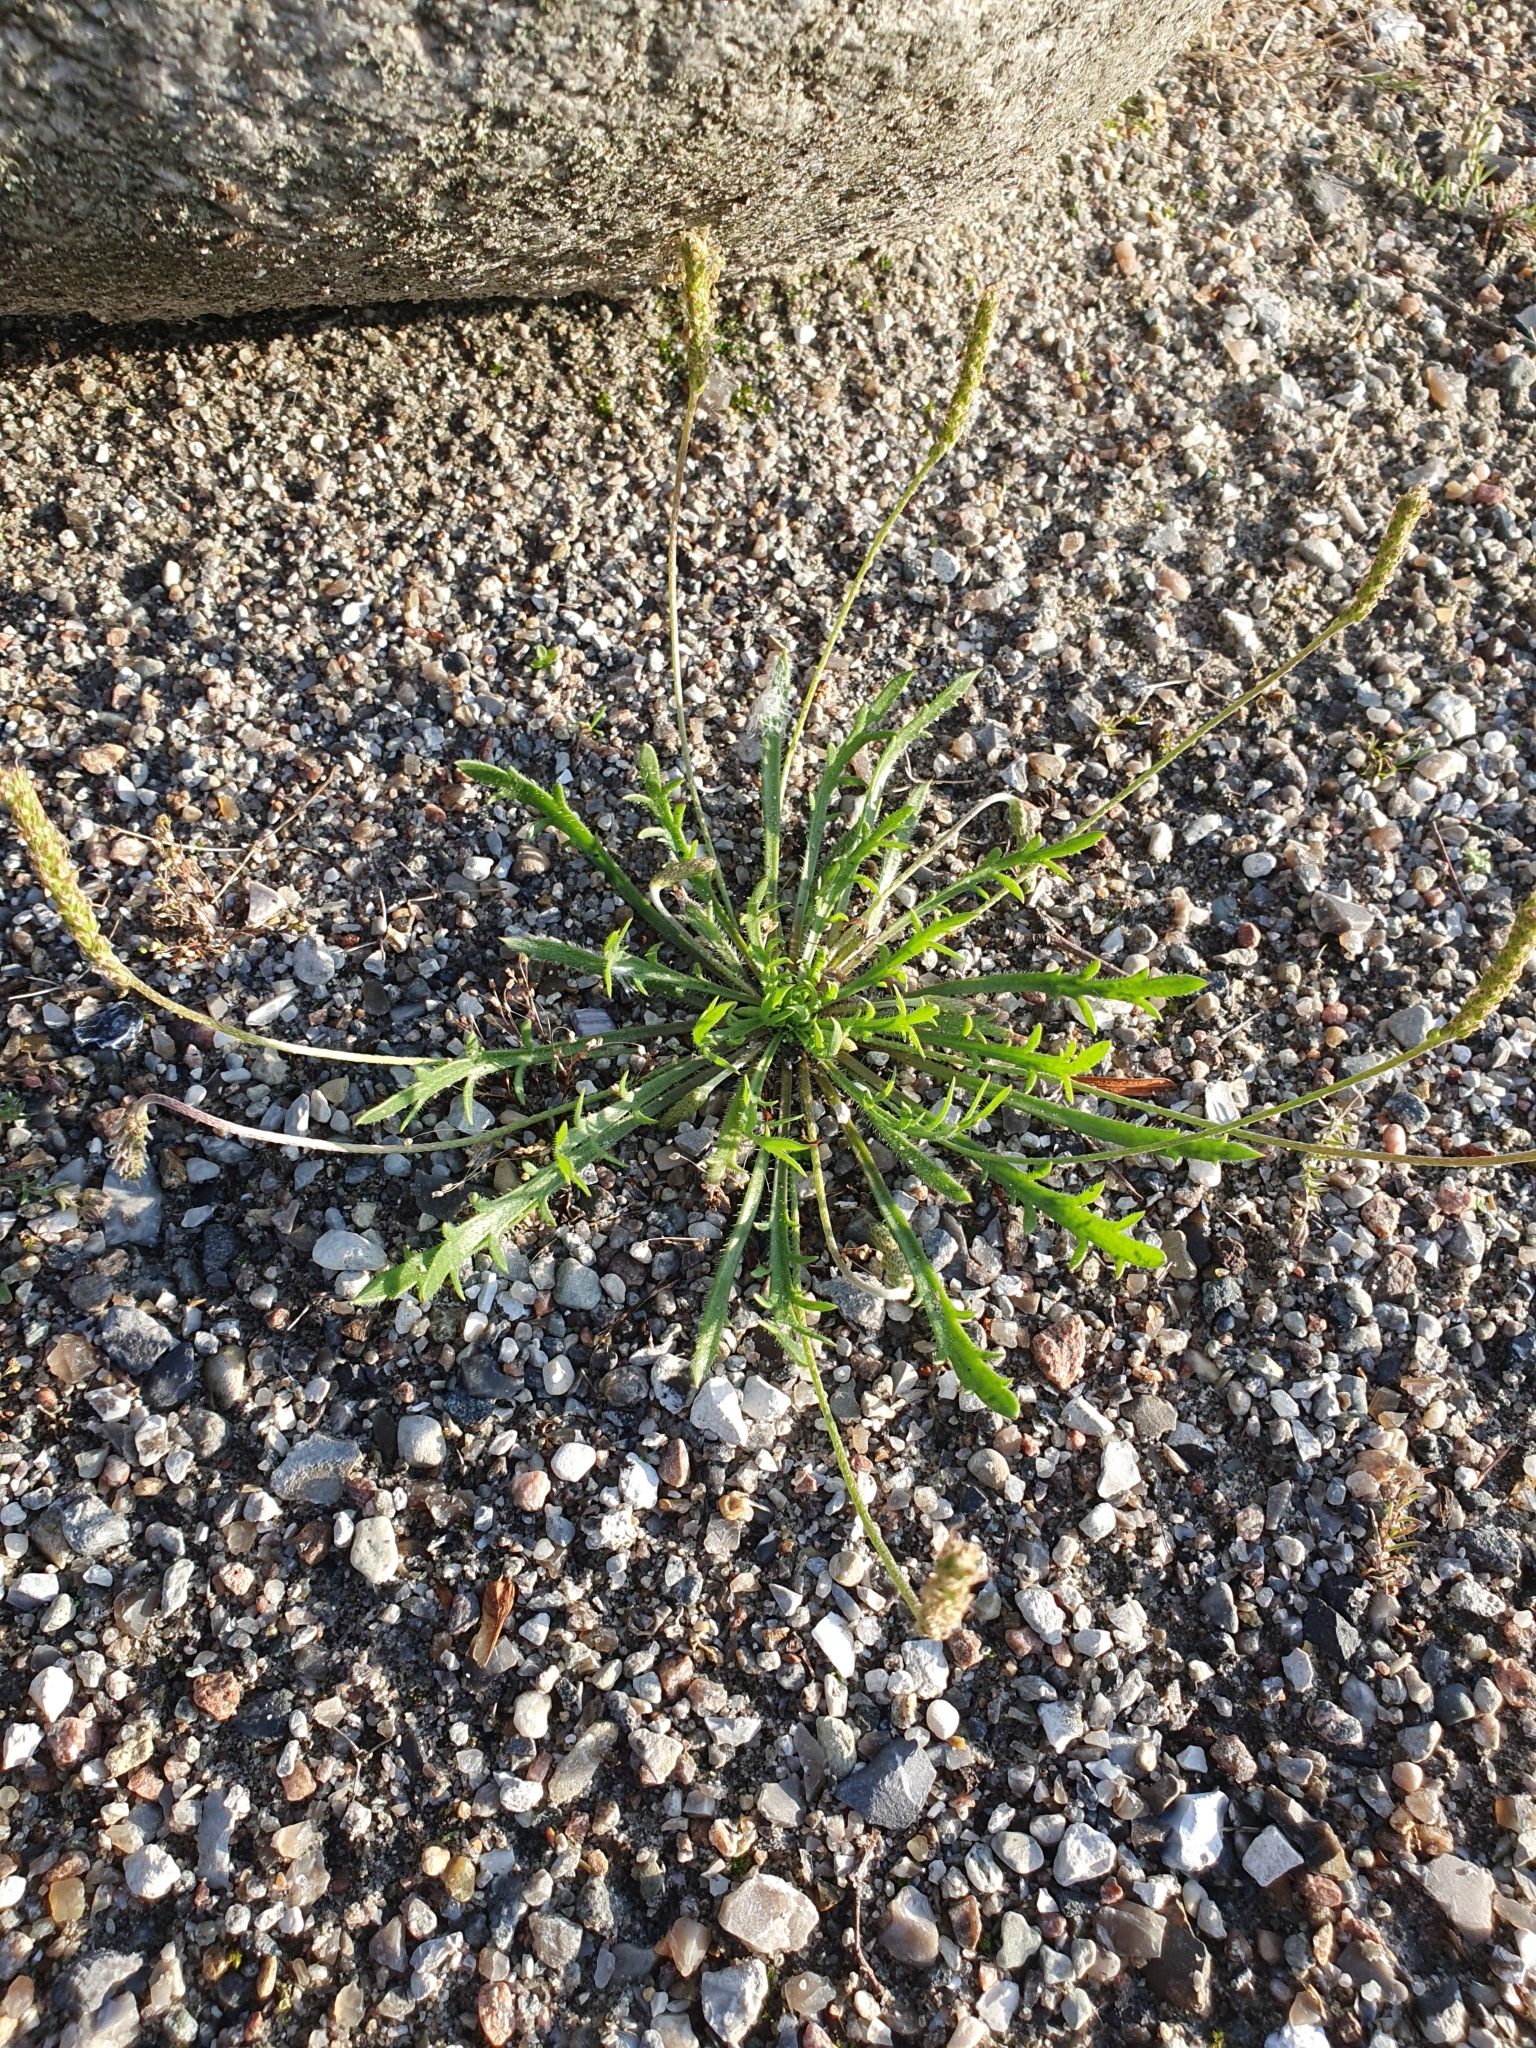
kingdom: Plantae
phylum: Tracheophyta
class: Magnoliopsida
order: Lamiales
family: Plantaginaceae
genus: Plantago
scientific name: Plantago coronopus
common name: Buck's-horn plantain
